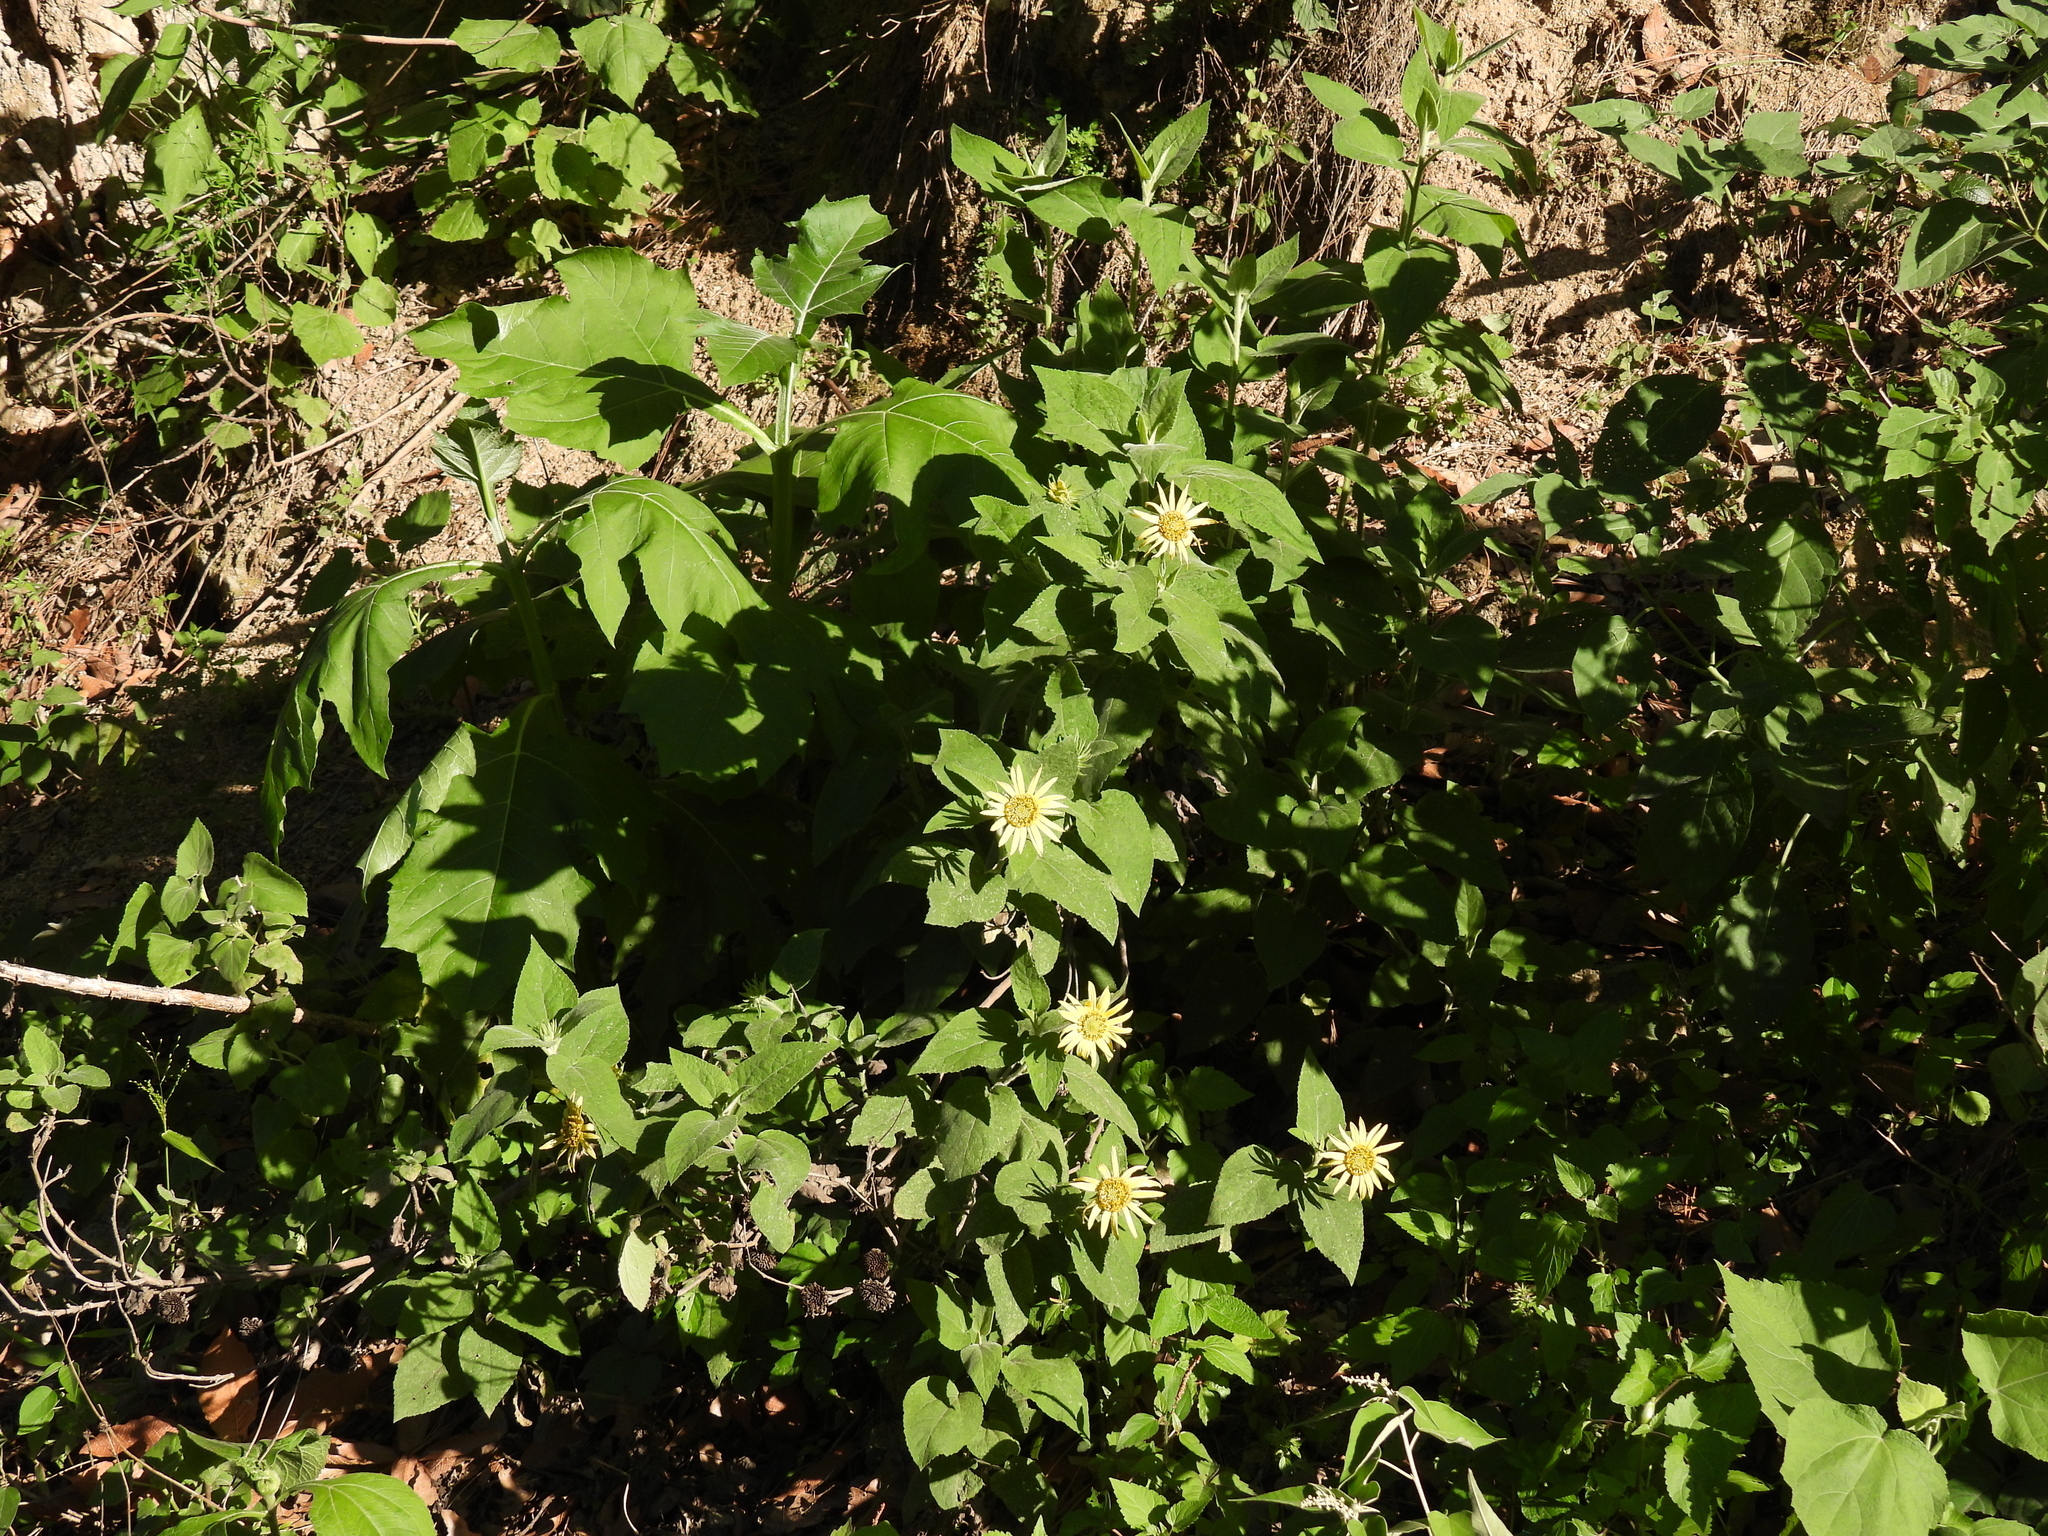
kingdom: Plantae
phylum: Tracheophyta
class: Magnoliopsida
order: Asterales
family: Asteraceae
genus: Vigethia
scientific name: Vigethia mexicana
